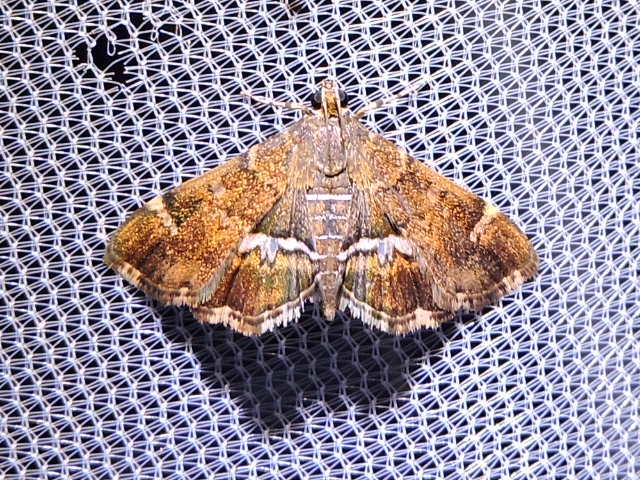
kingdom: Animalia
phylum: Arthropoda
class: Insecta
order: Lepidoptera
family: Crambidae
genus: Hymenia
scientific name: Hymenia perspectalis
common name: Spotted beet webworm
